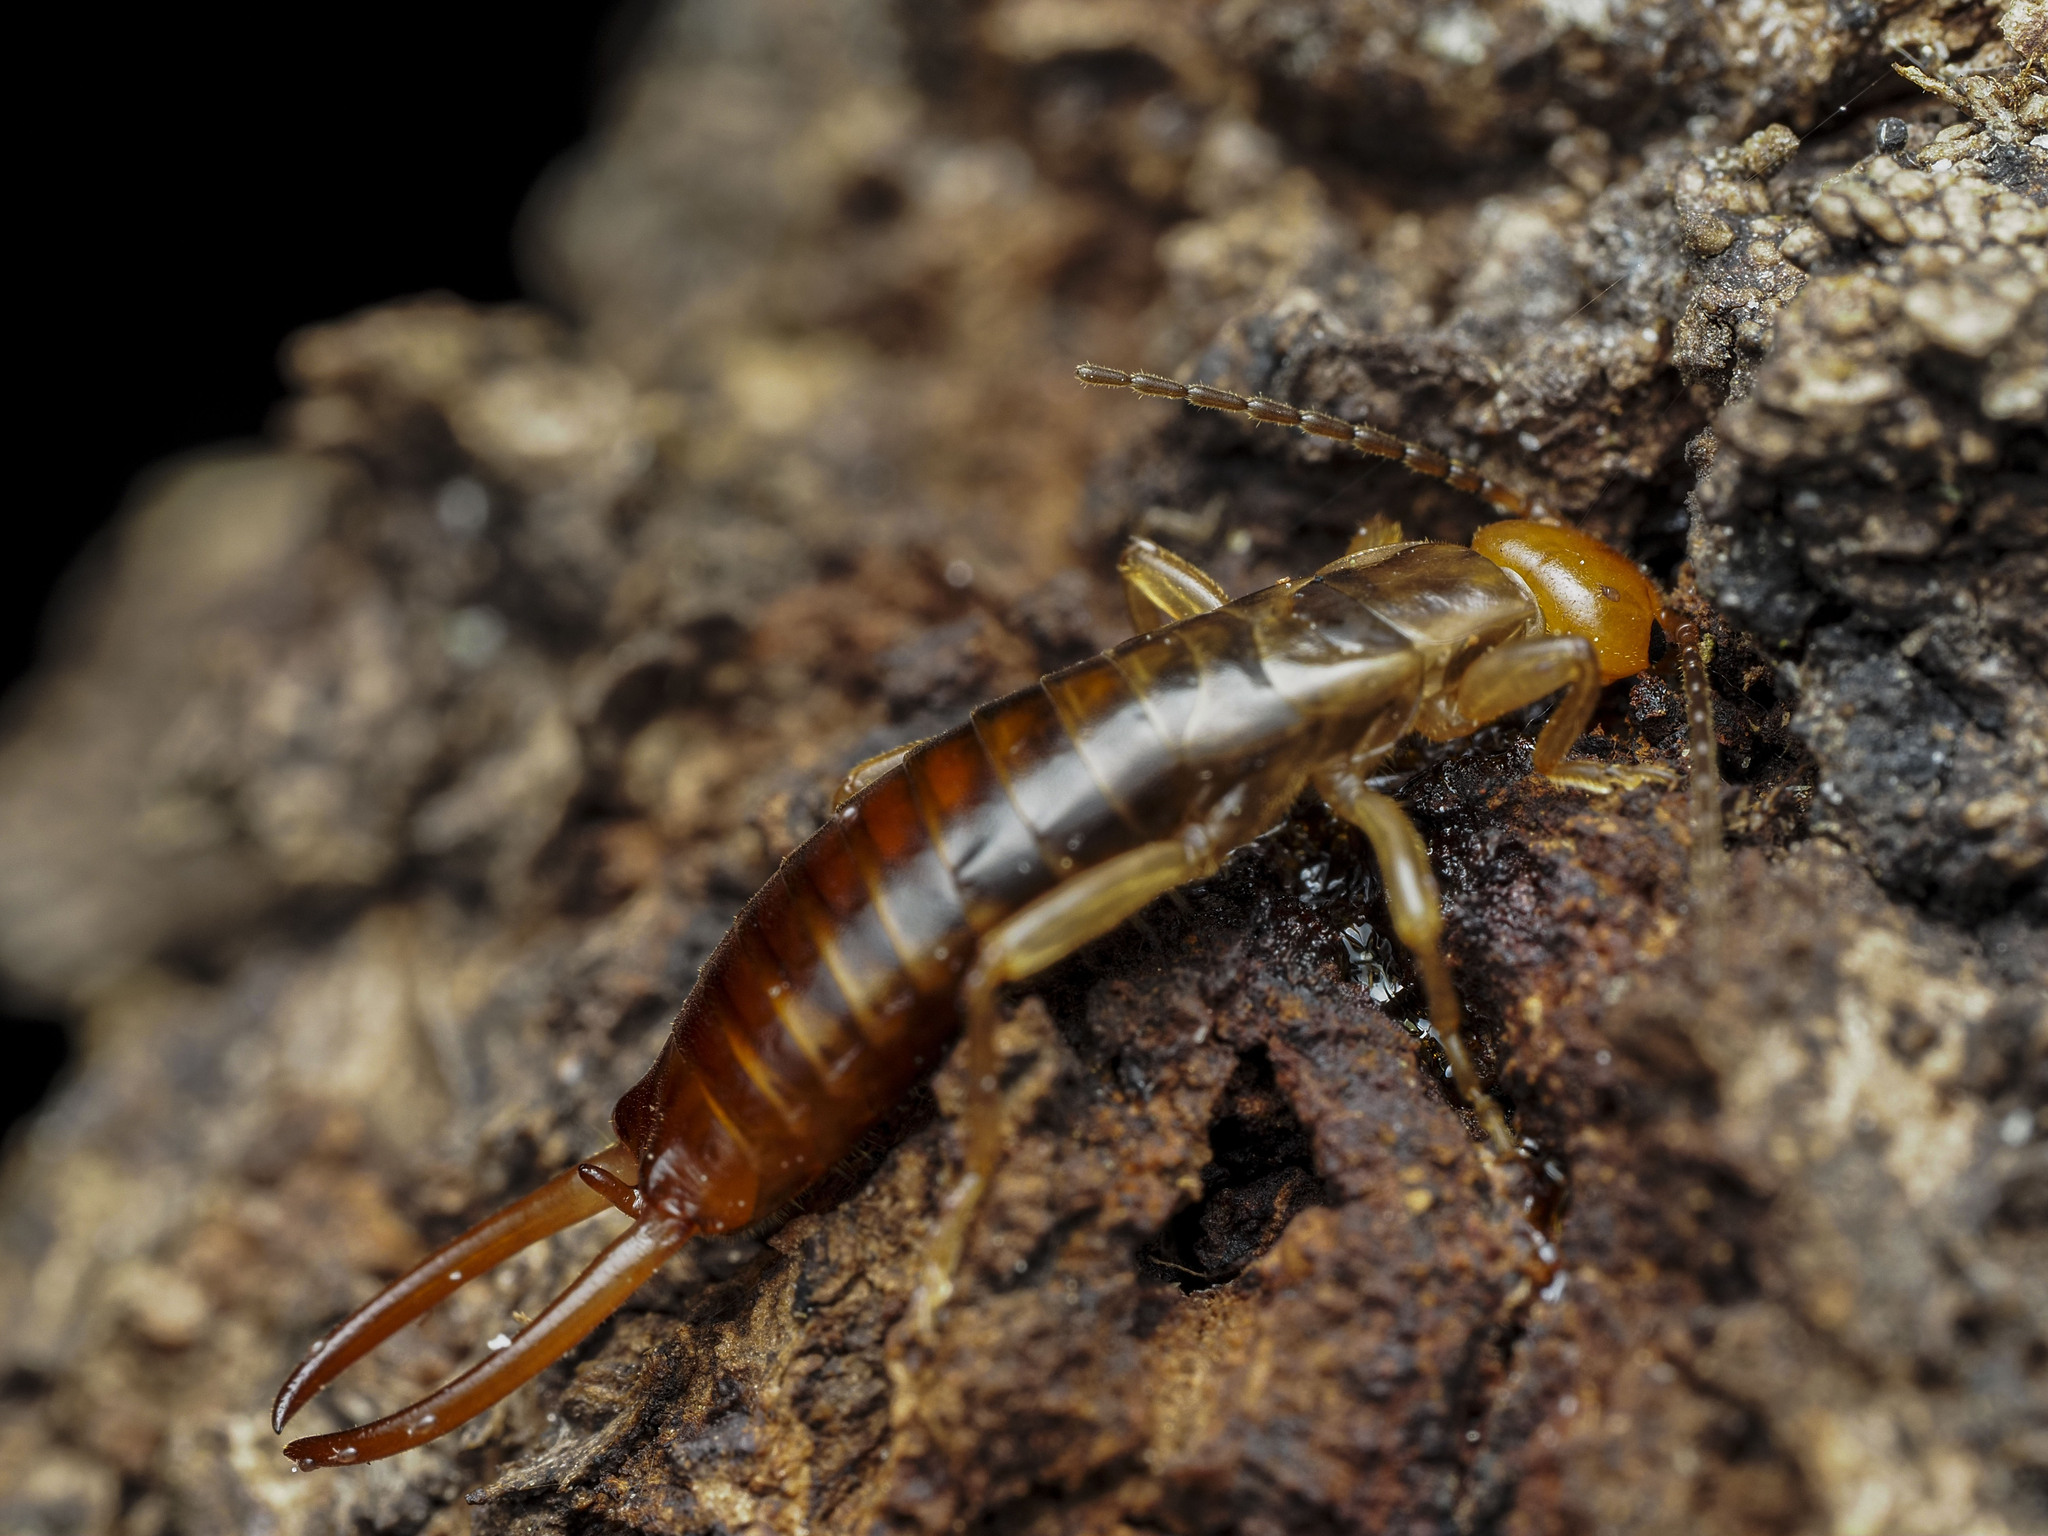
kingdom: Animalia
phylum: Arthropoda
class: Insecta
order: Dermaptera
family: Forficulidae
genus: Chelidurella
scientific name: Chelidurella acanthopygia
